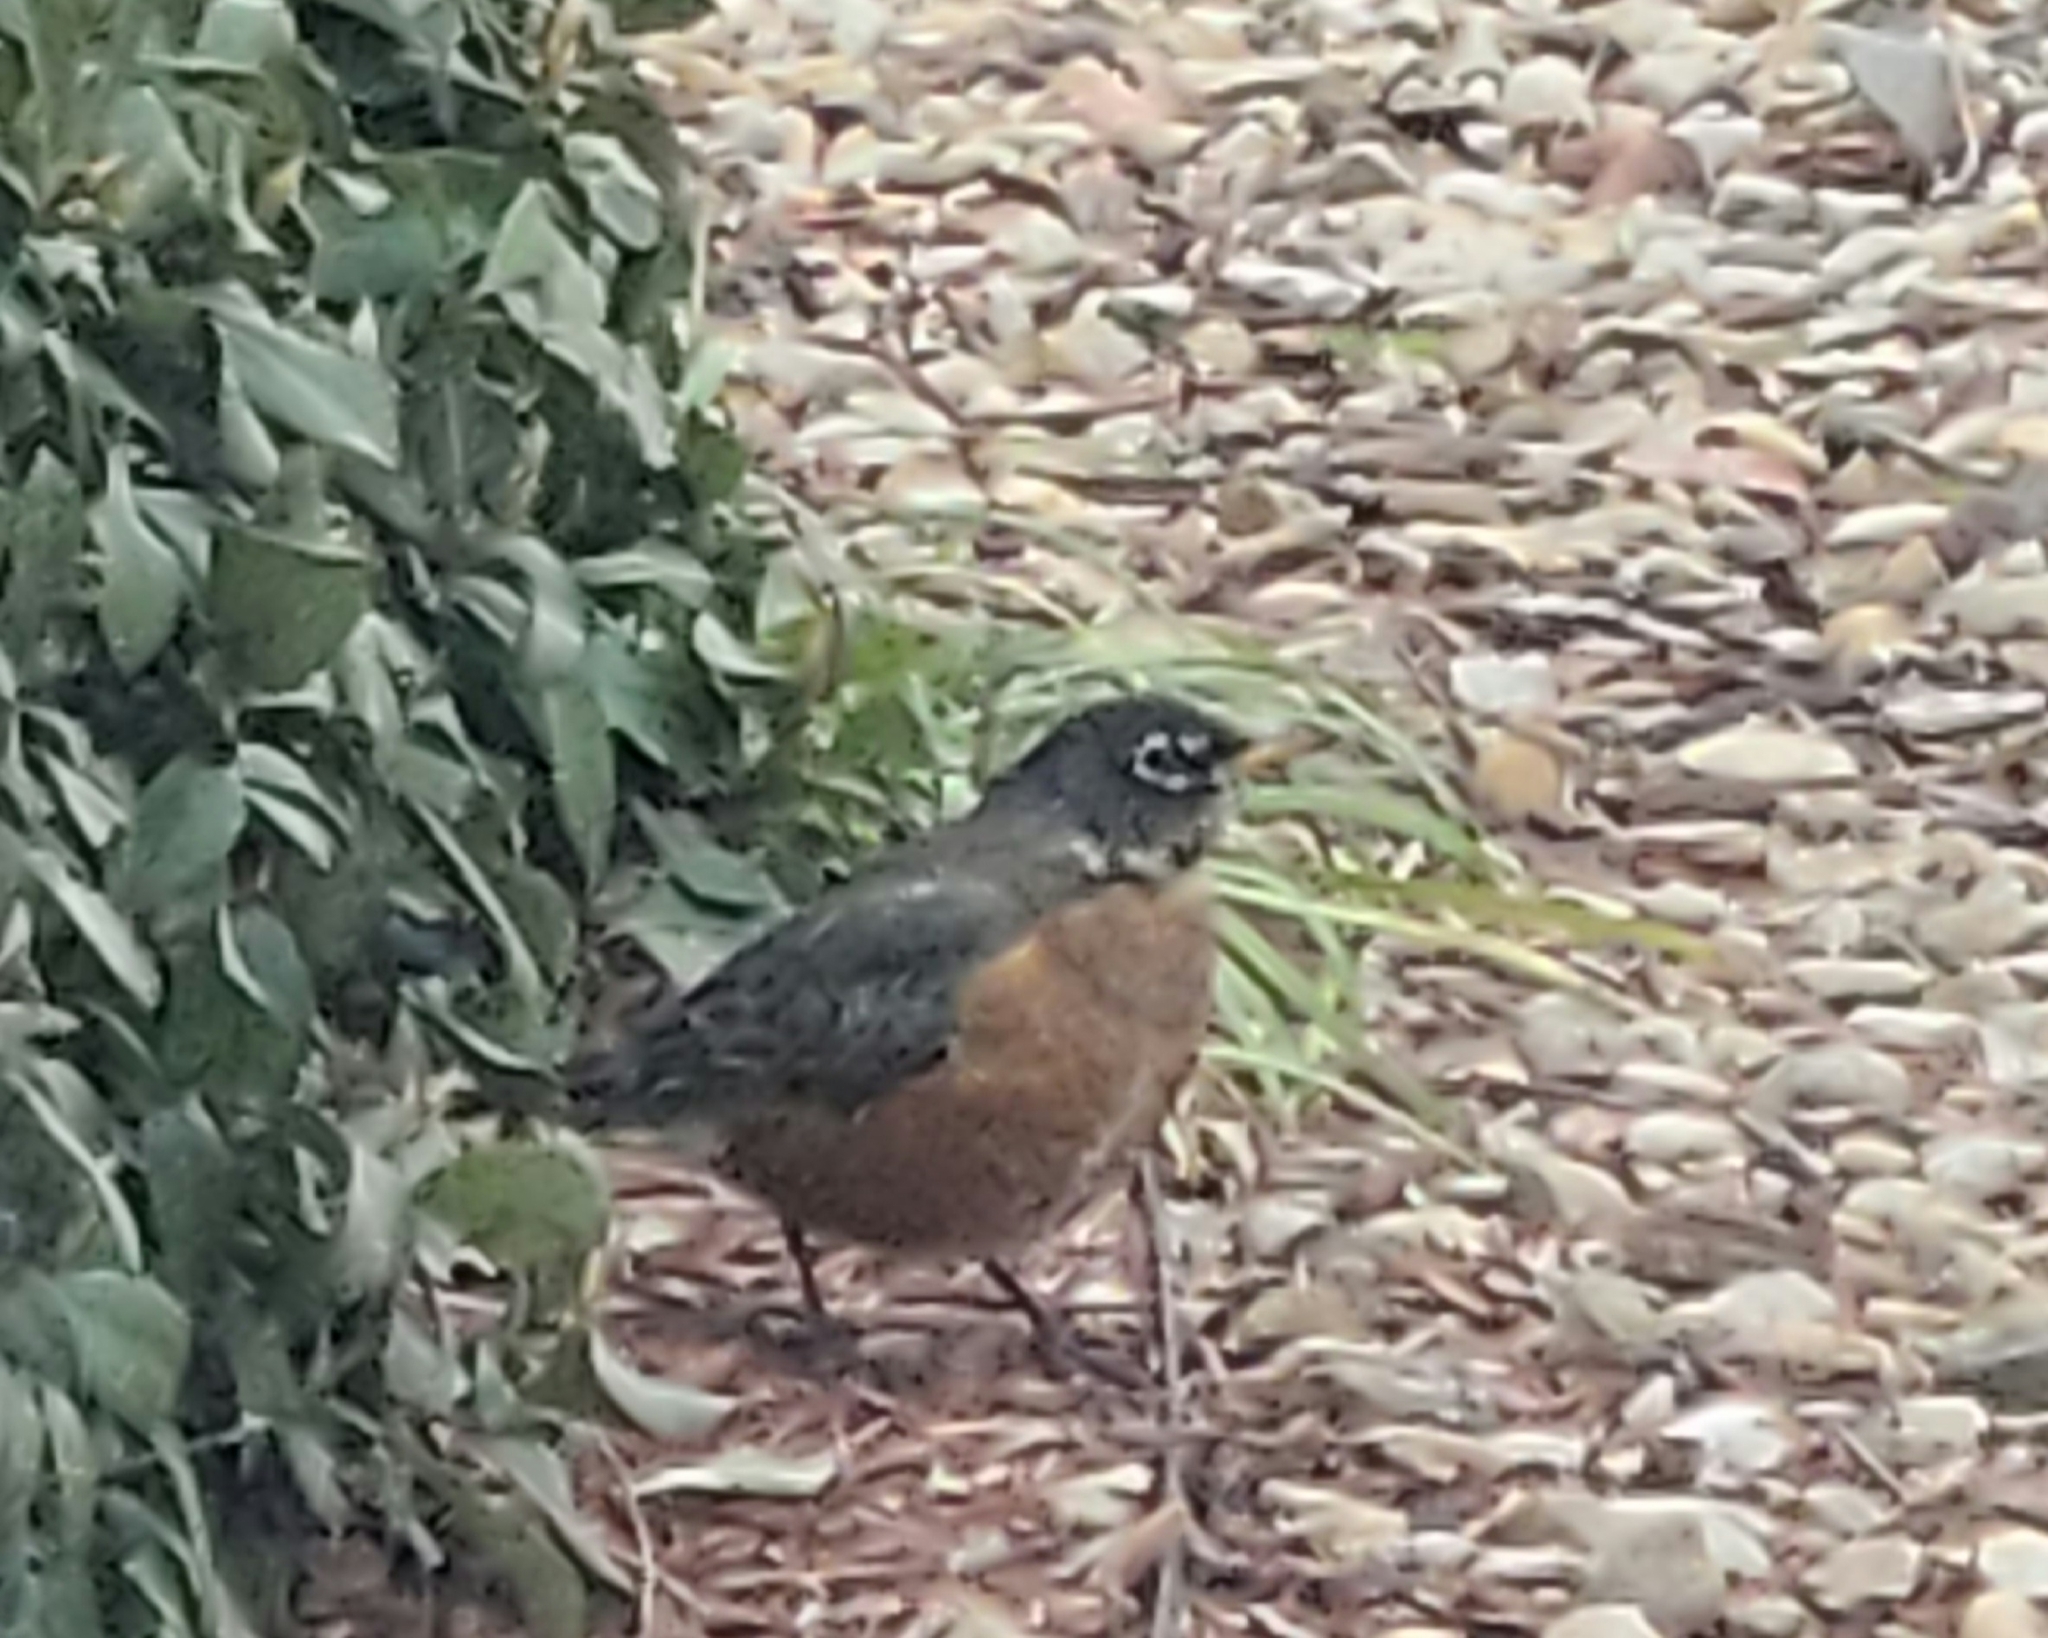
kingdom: Animalia
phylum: Chordata
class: Aves
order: Passeriformes
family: Turdidae
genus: Turdus
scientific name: Turdus migratorius
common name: American robin
